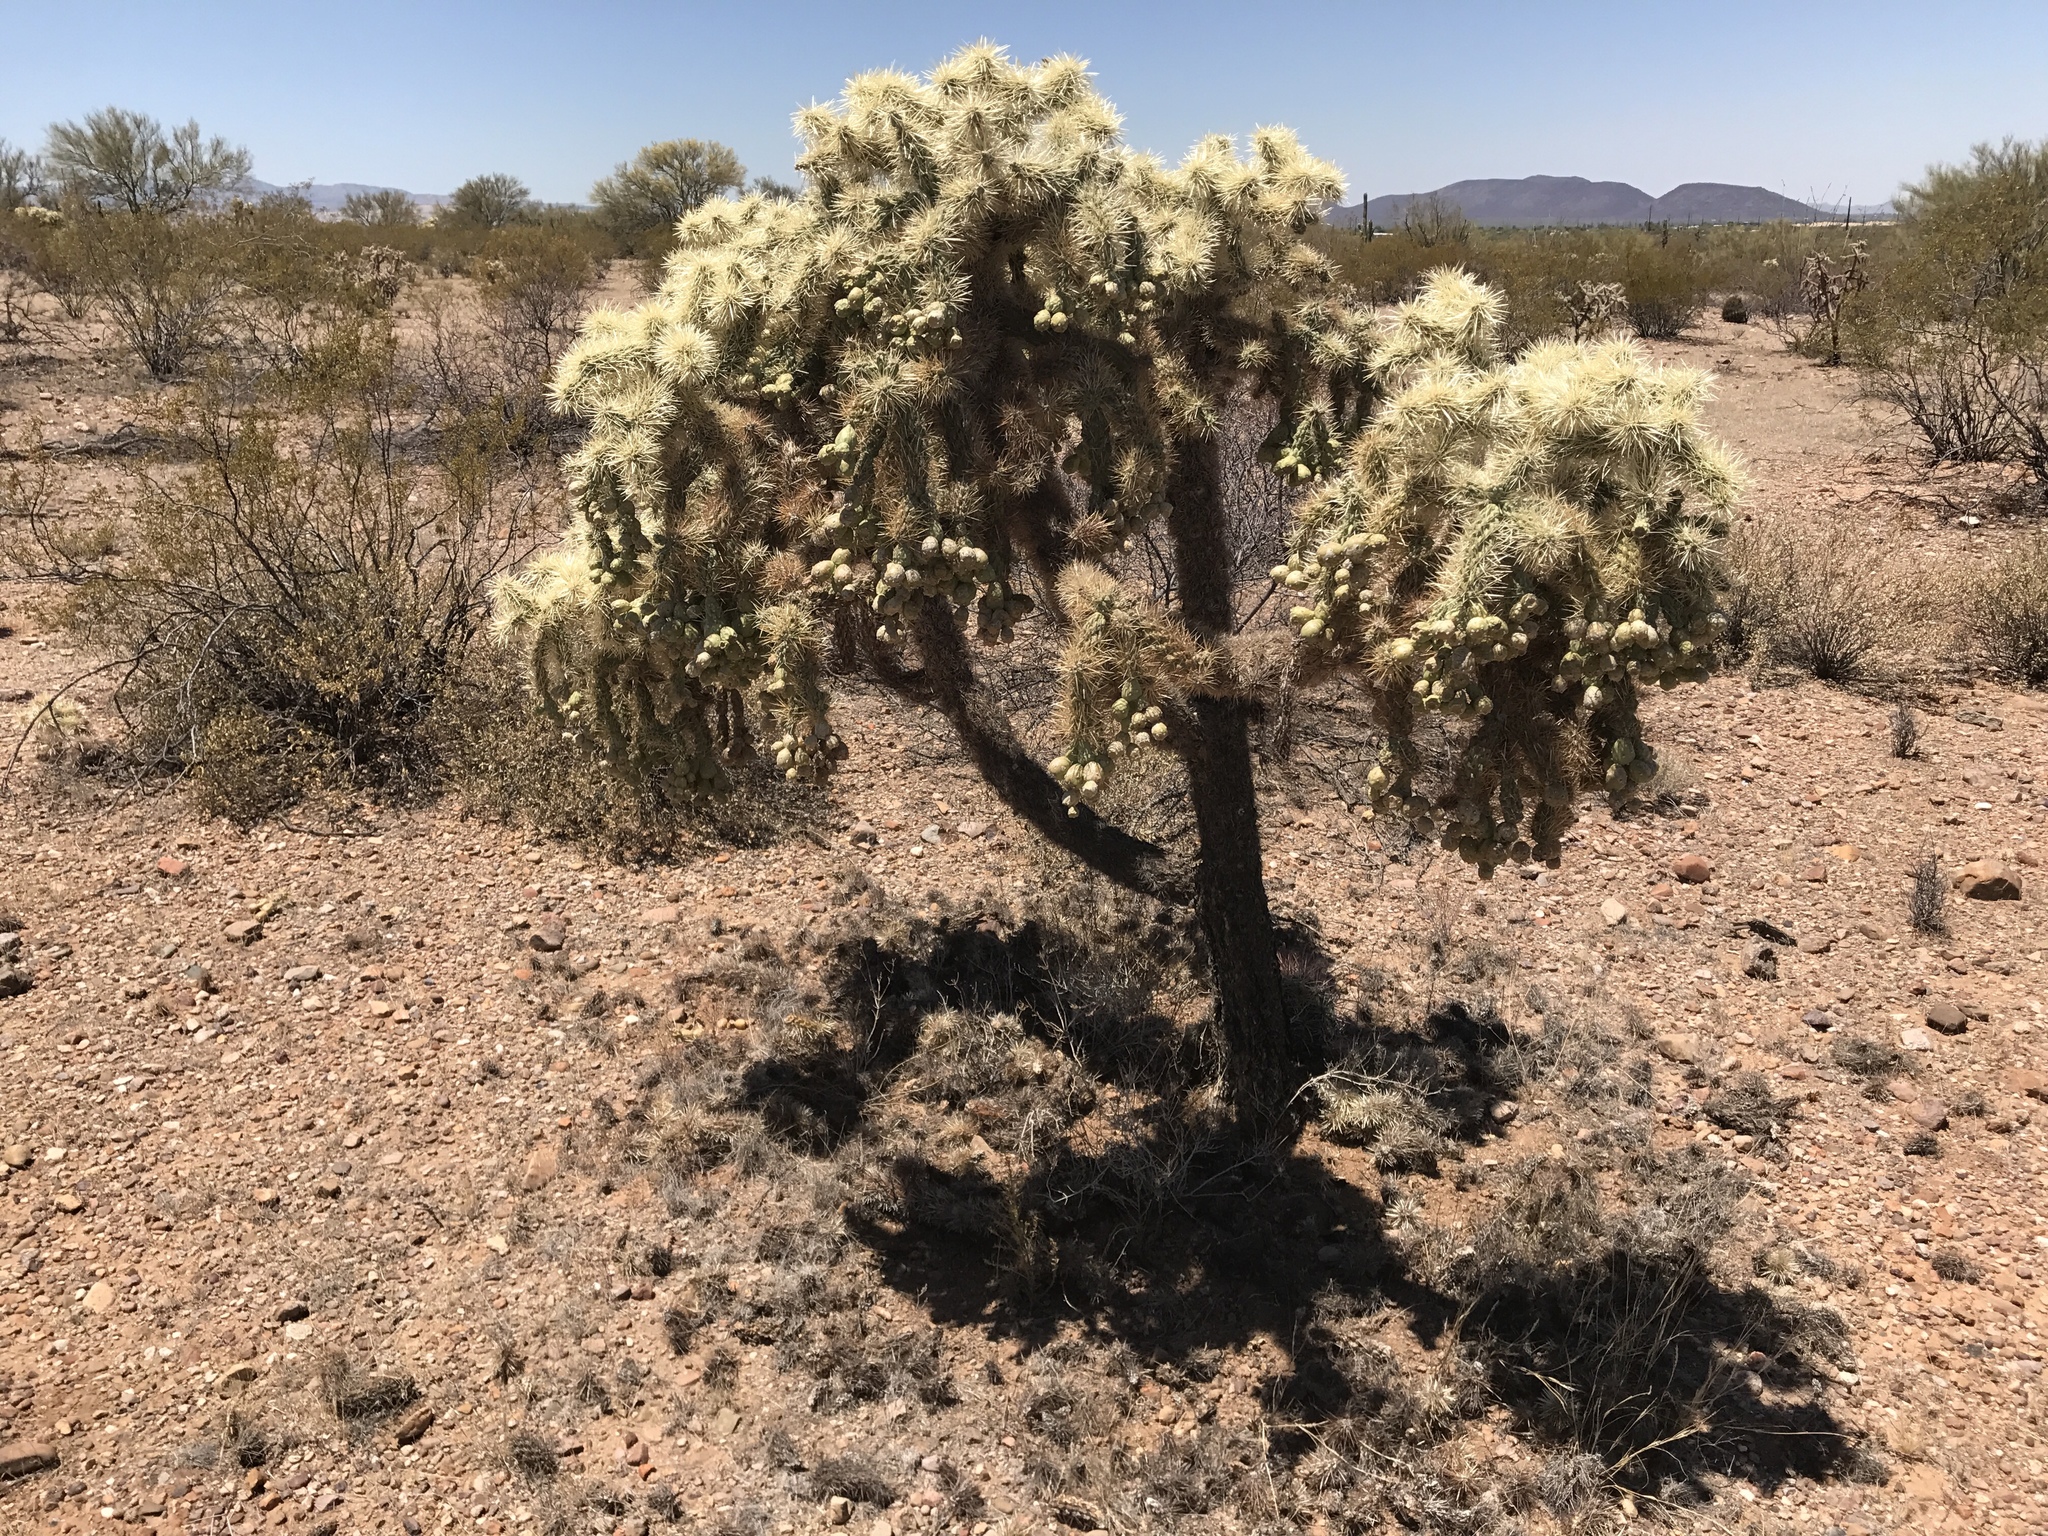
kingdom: Plantae
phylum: Tracheophyta
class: Magnoliopsida
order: Caryophyllales
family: Cactaceae
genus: Cylindropuntia
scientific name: Cylindropuntia fulgida
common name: Jumping cholla
